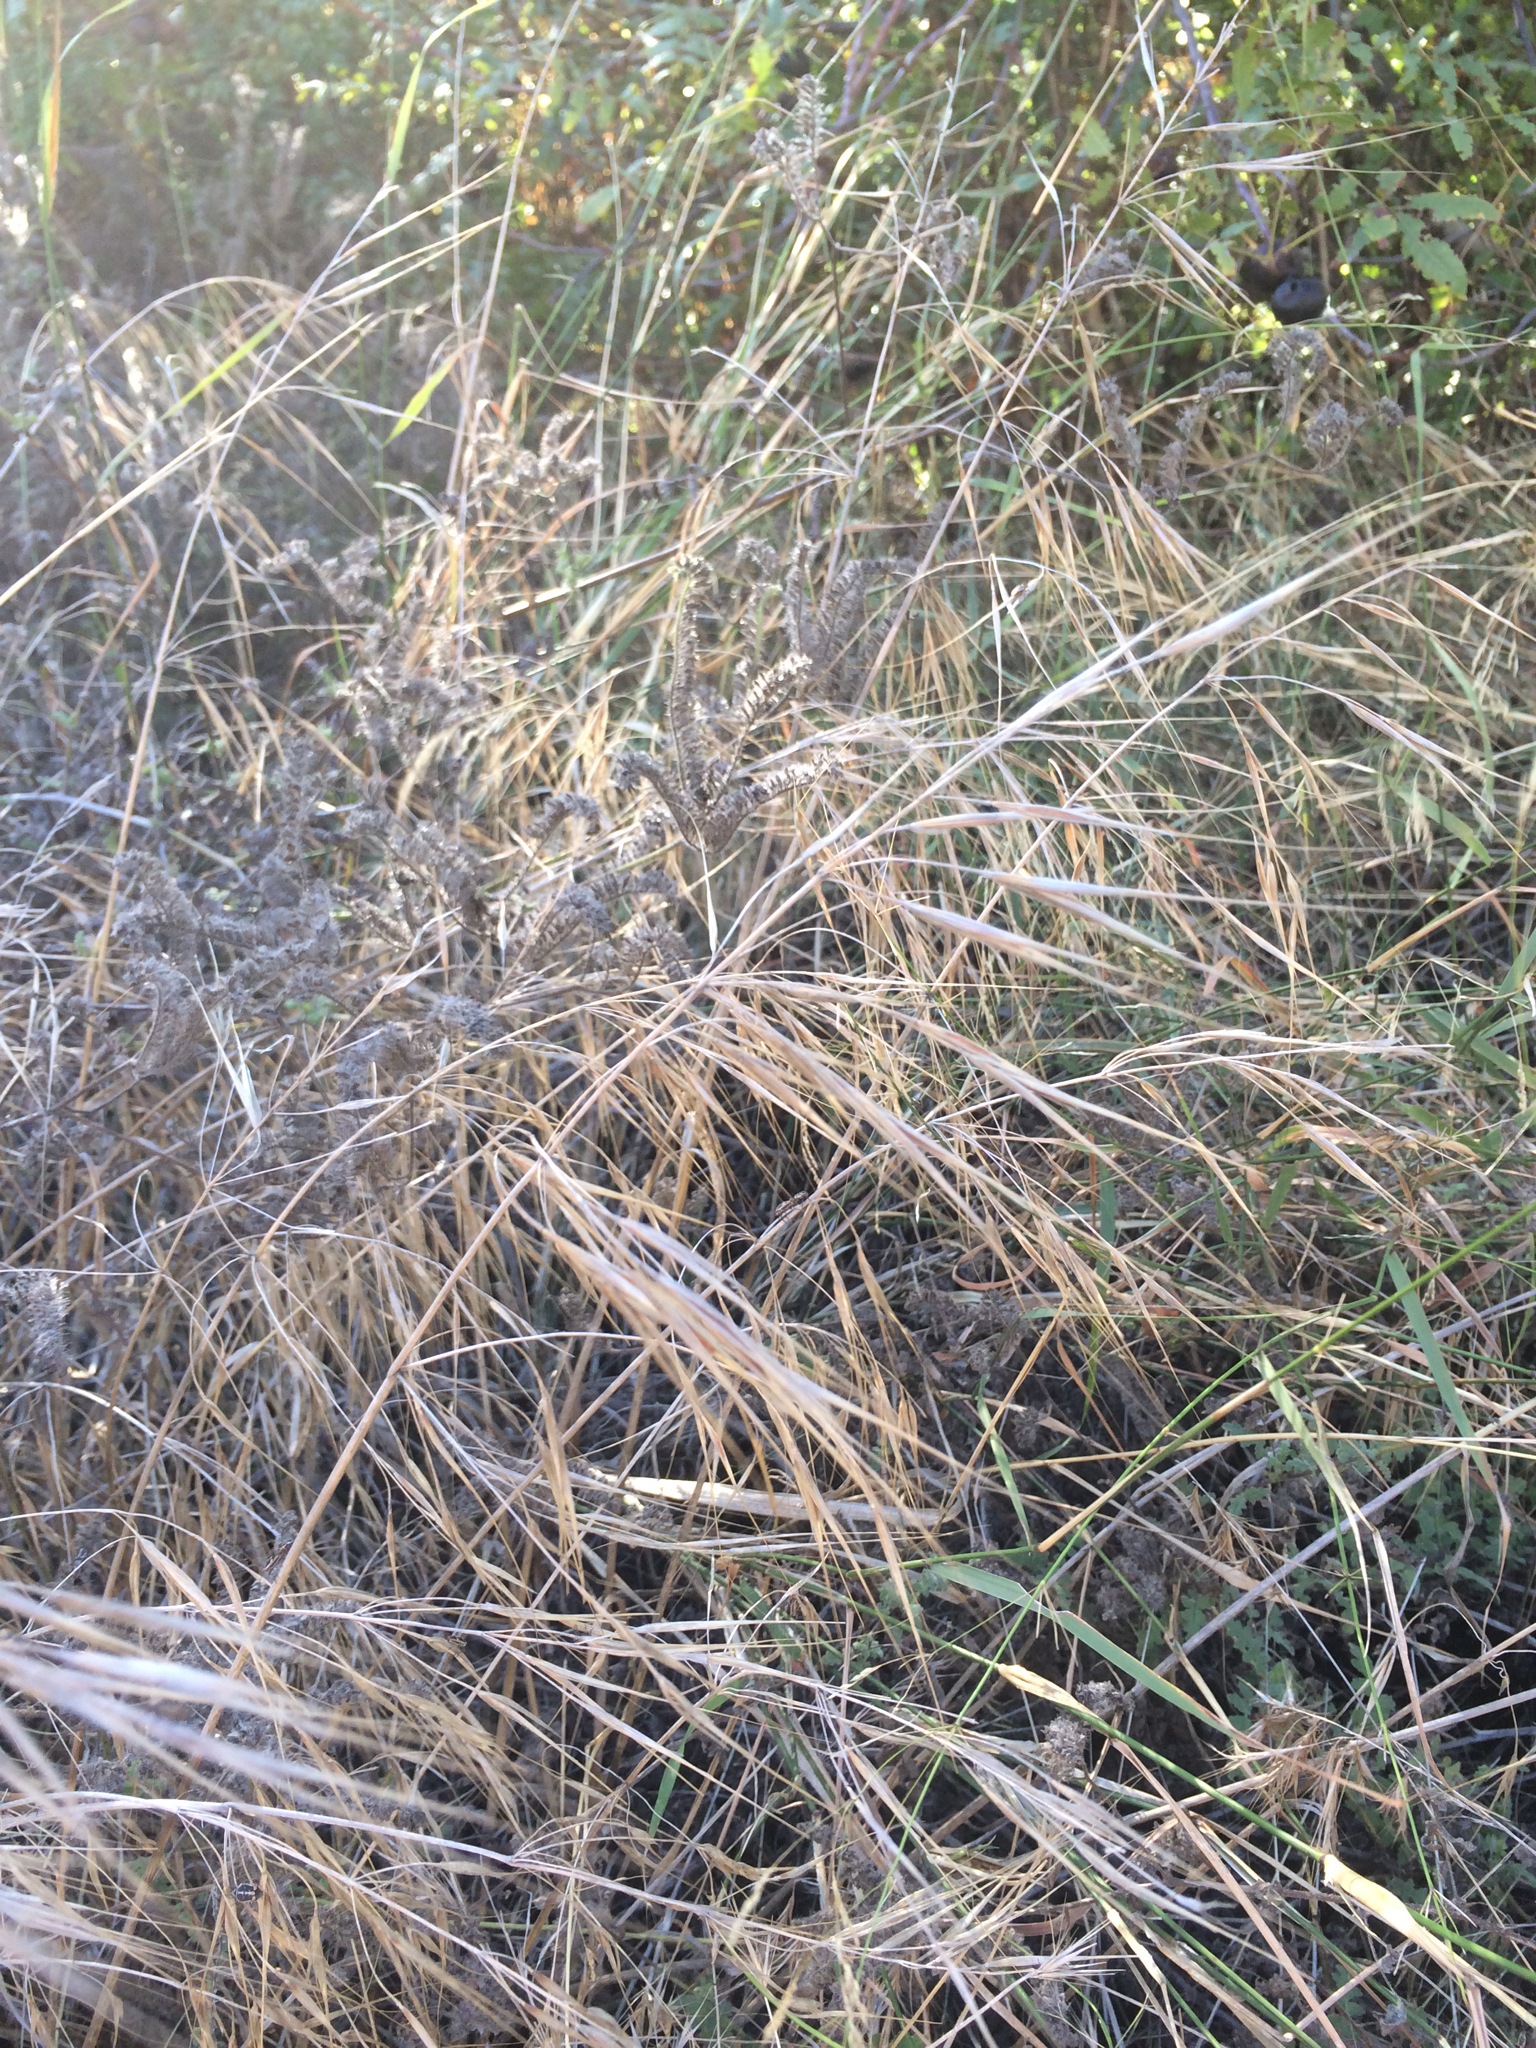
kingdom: Plantae
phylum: Tracheophyta
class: Liliopsida
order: Poales
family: Poaceae
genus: Bromus
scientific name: Bromus diandrus
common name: Ripgut brome
